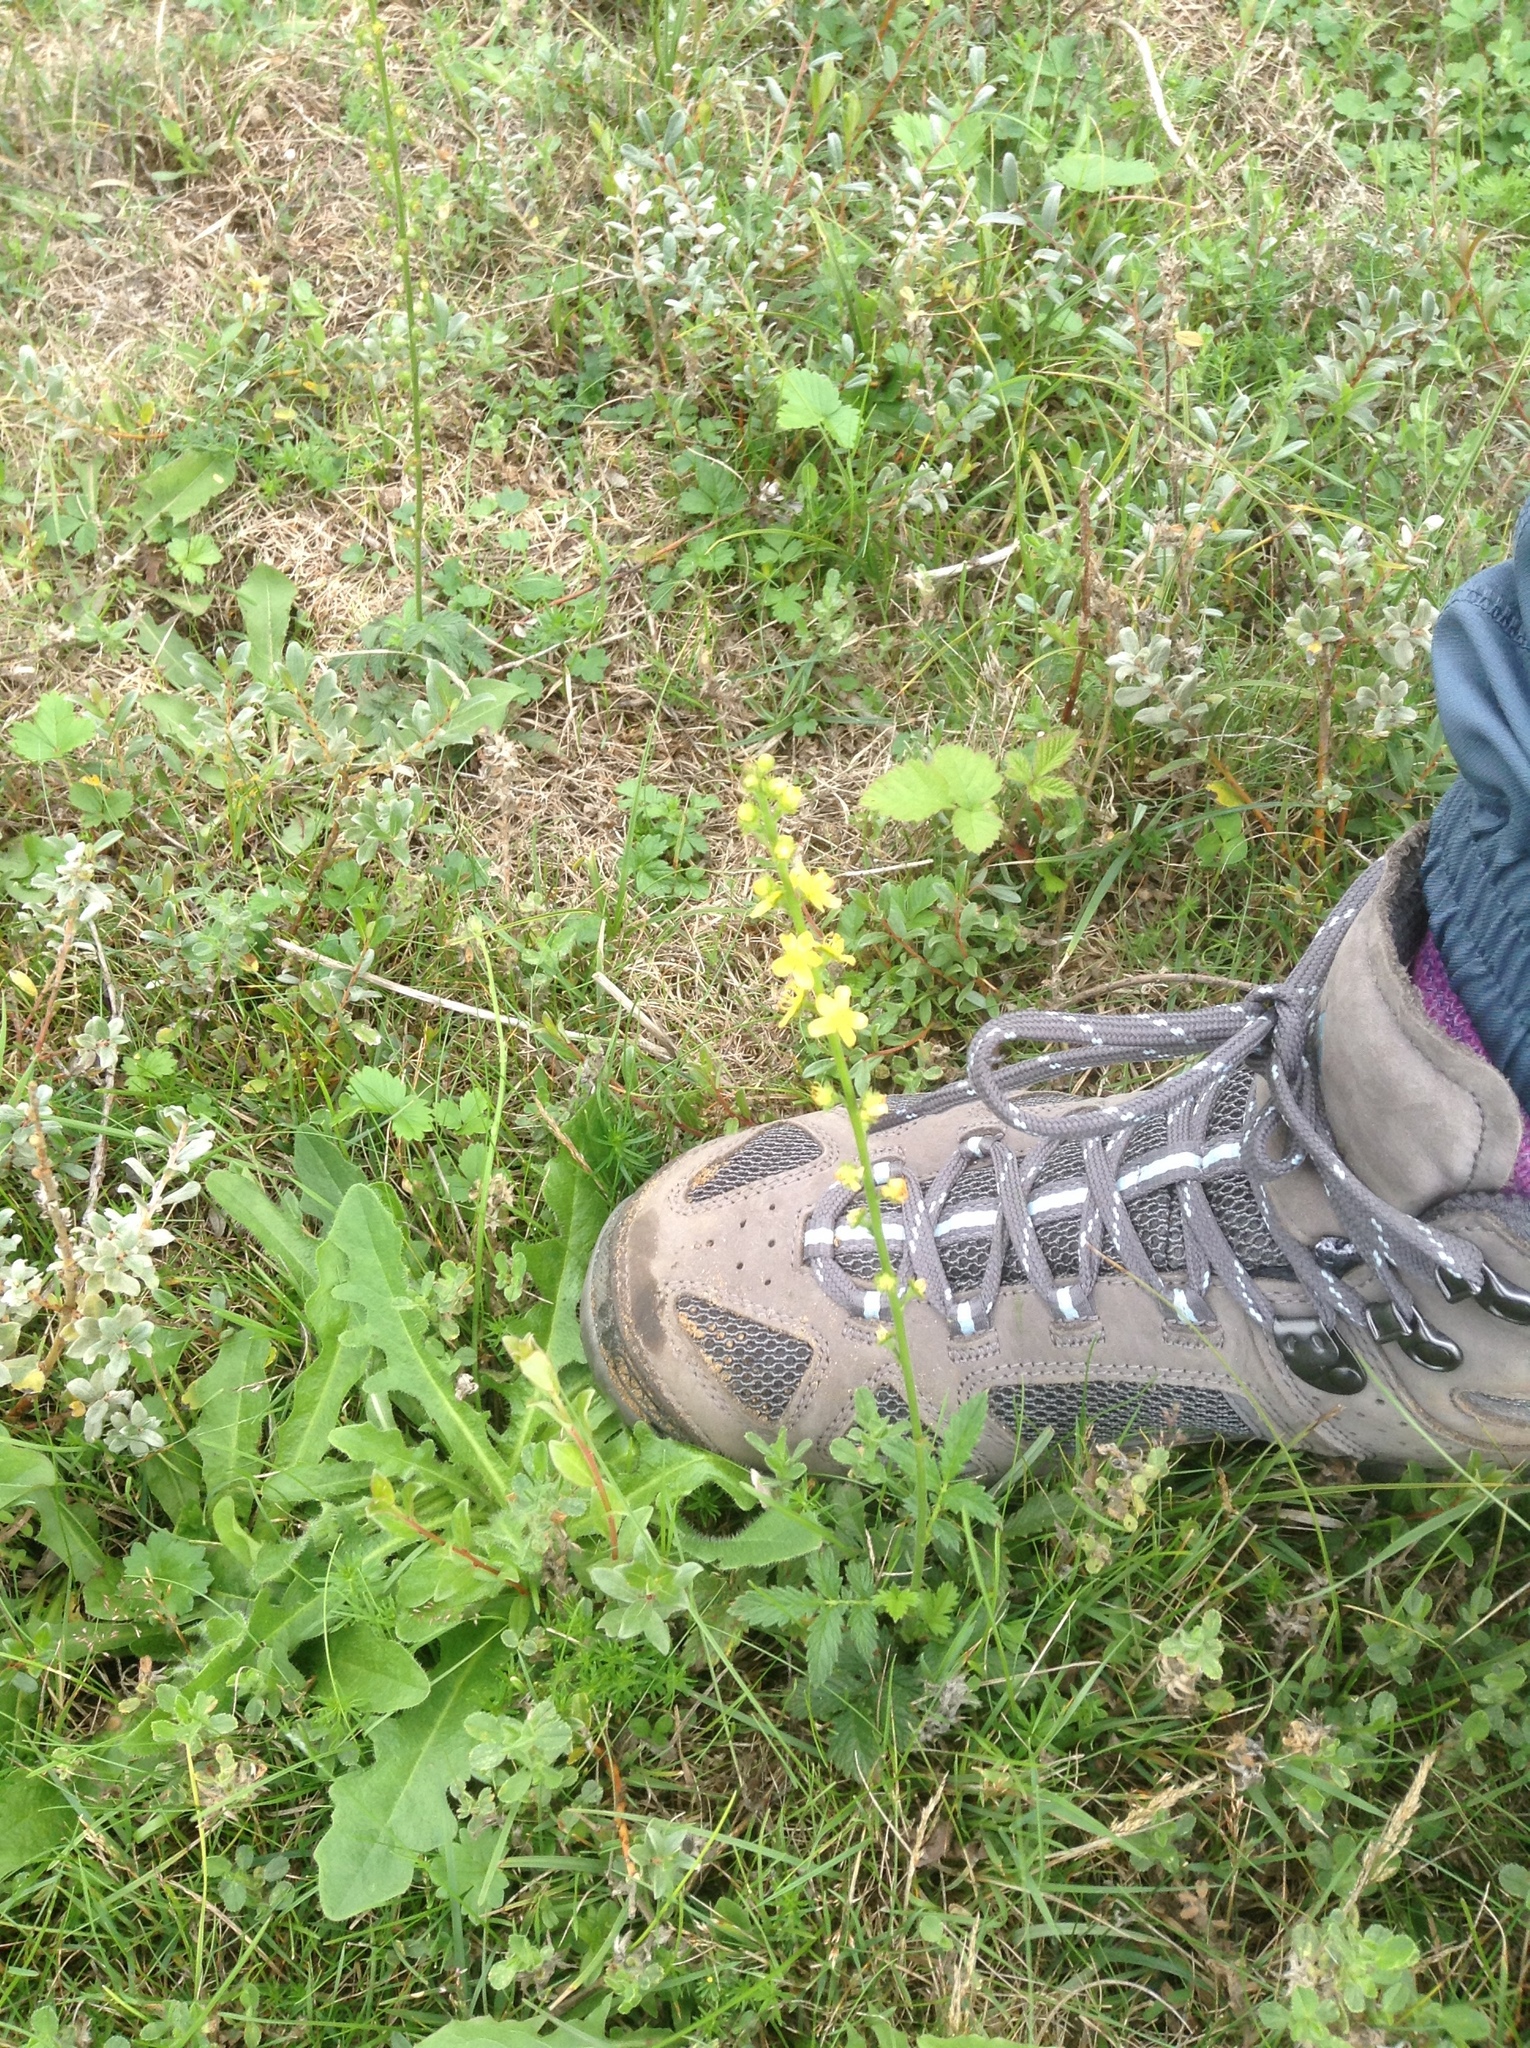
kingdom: Plantae
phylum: Tracheophyta
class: Magnoliopsida
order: Rosales
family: Rosaceae
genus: Agrimonia
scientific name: Agrimonia eupatoria
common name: Agrimony
